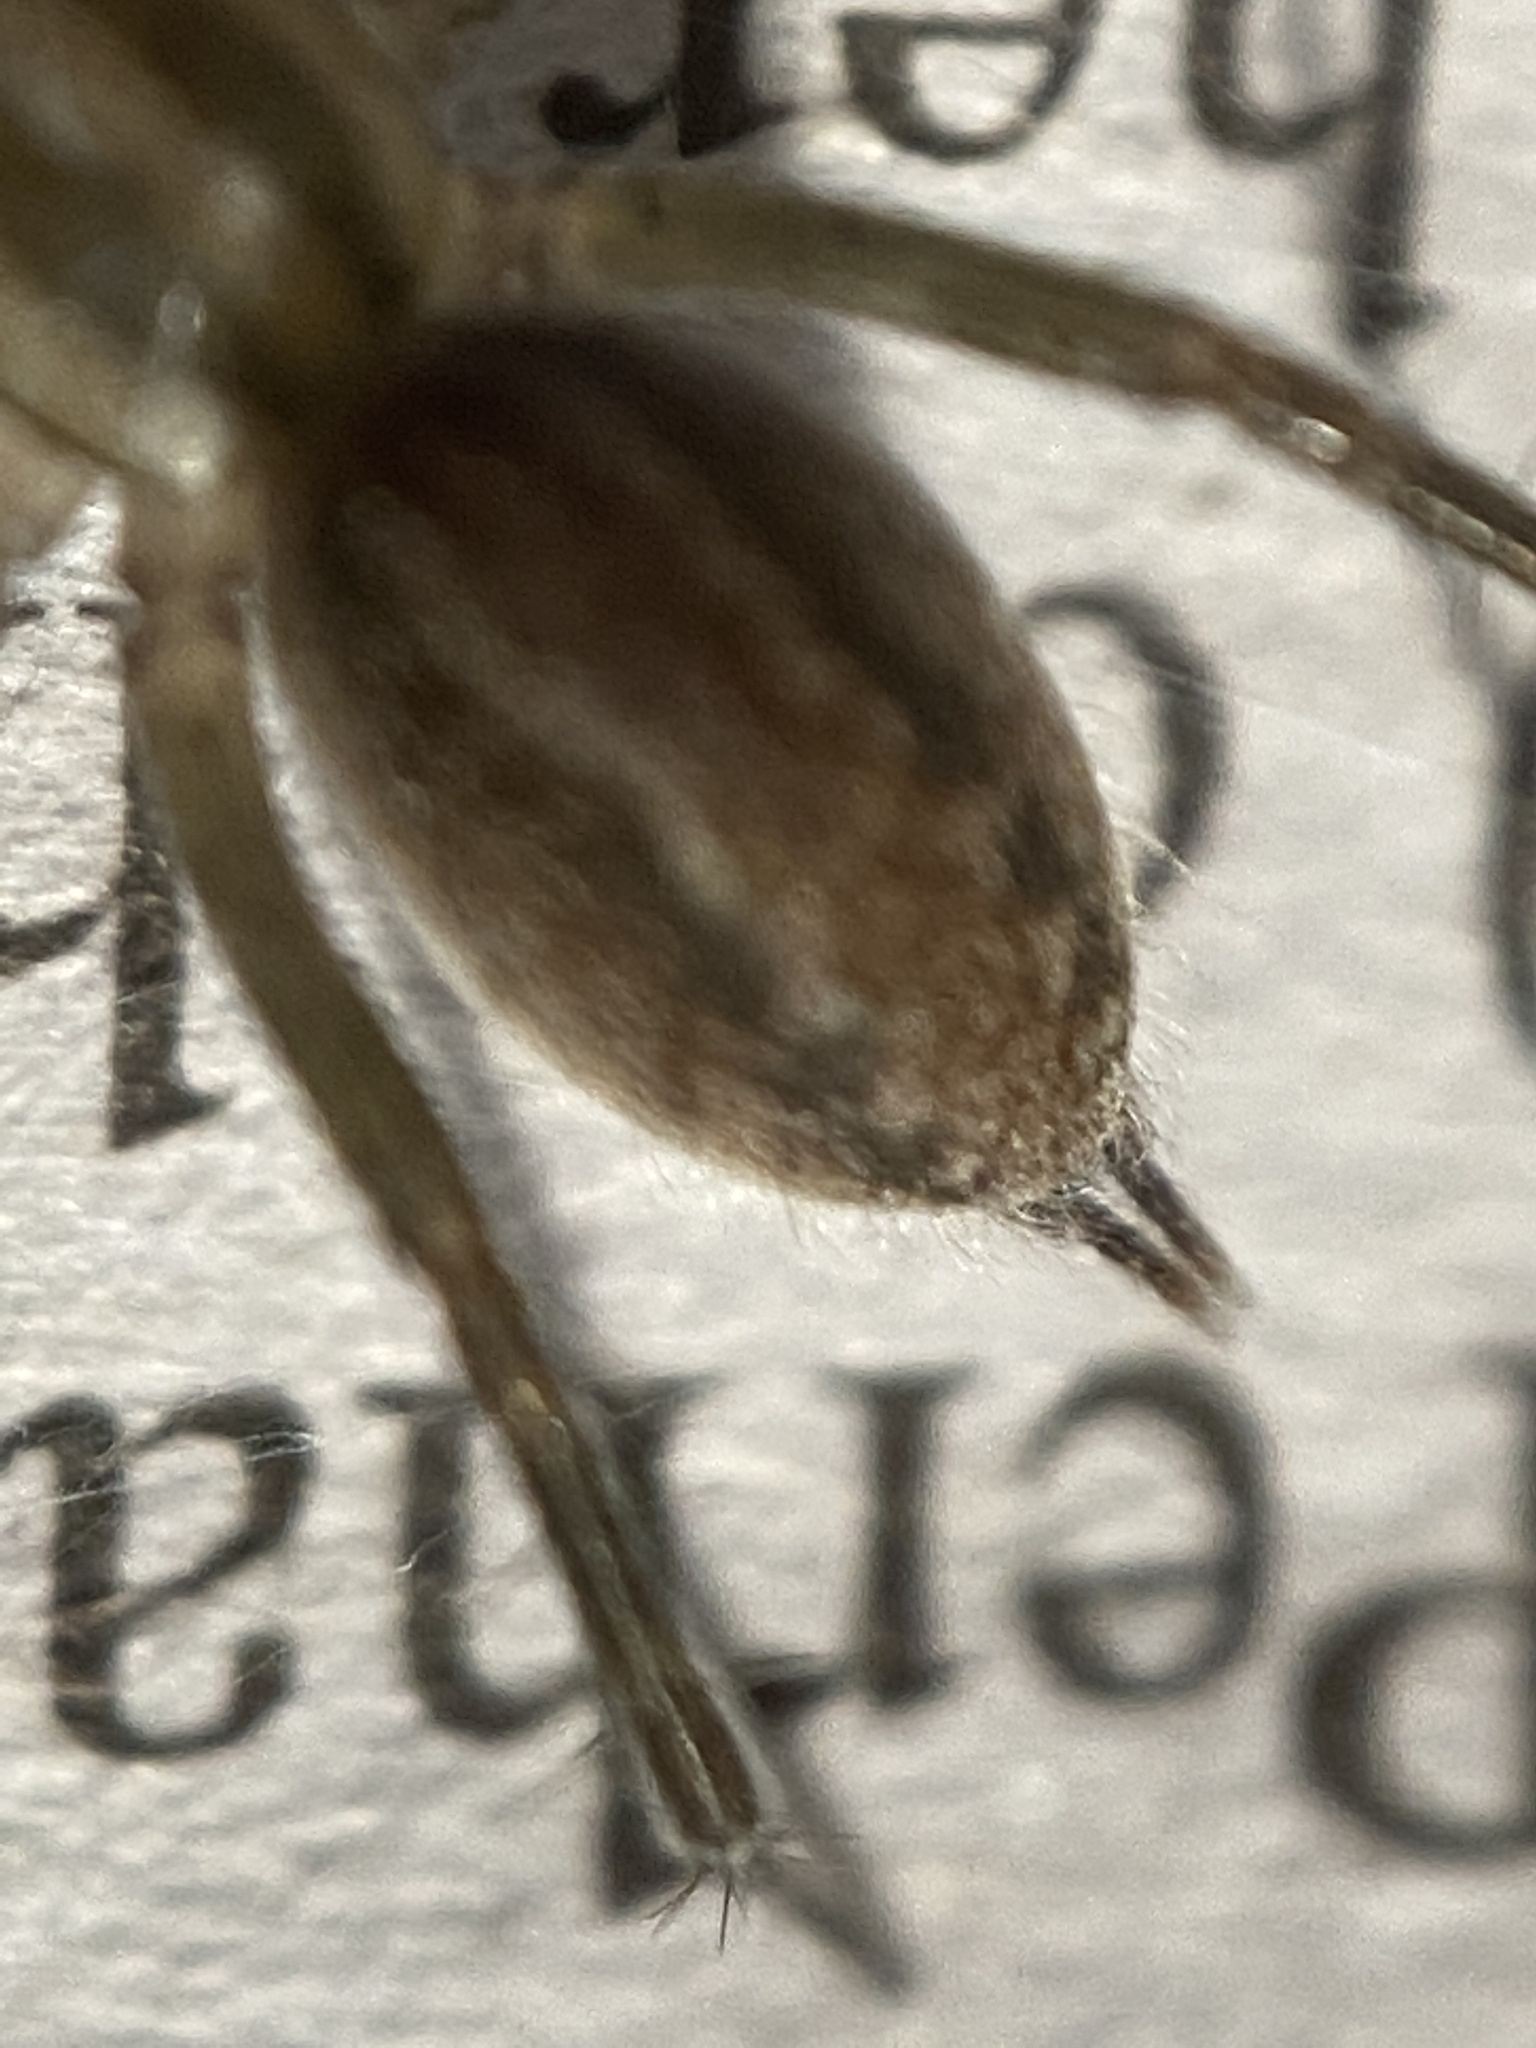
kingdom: Animalia
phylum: Arthropoda
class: Arachnida
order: Araneae
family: Agelenidae
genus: Agelenopsis
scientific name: Agelenopsis
